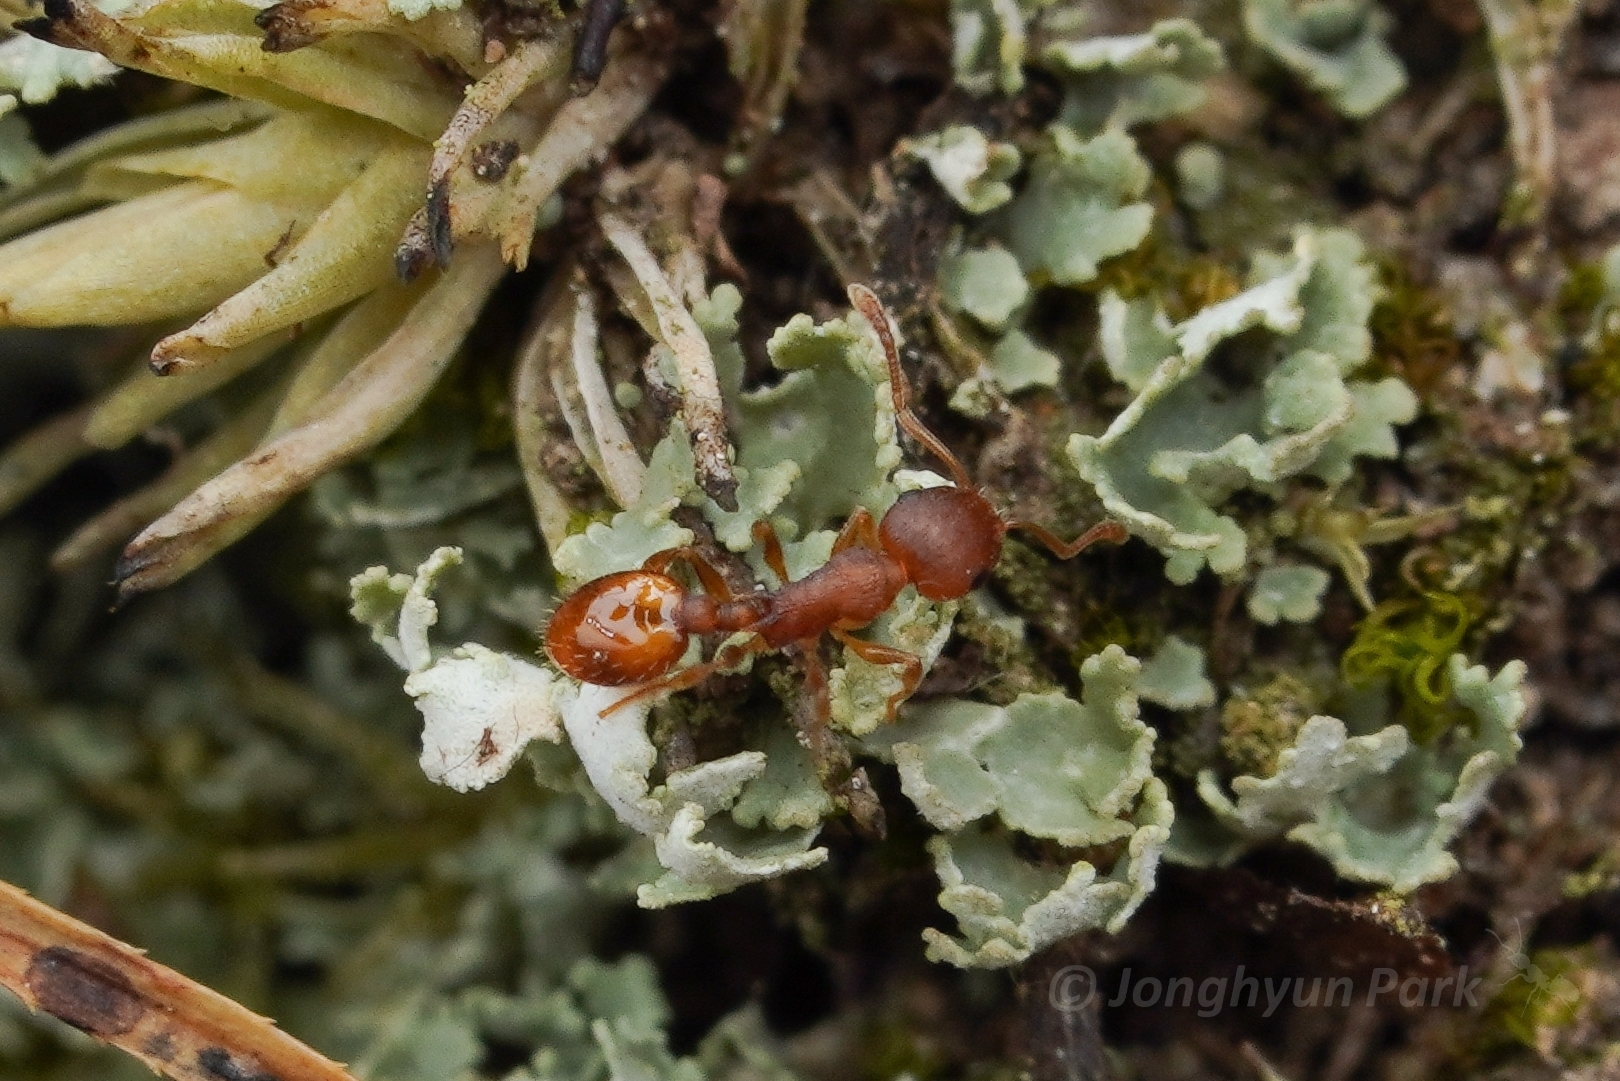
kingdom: Animalia
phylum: Arthropoda
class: Insecta
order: Hymenoptera
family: Formicidae
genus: Temnothorax
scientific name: Temnothorax curvispinosus
